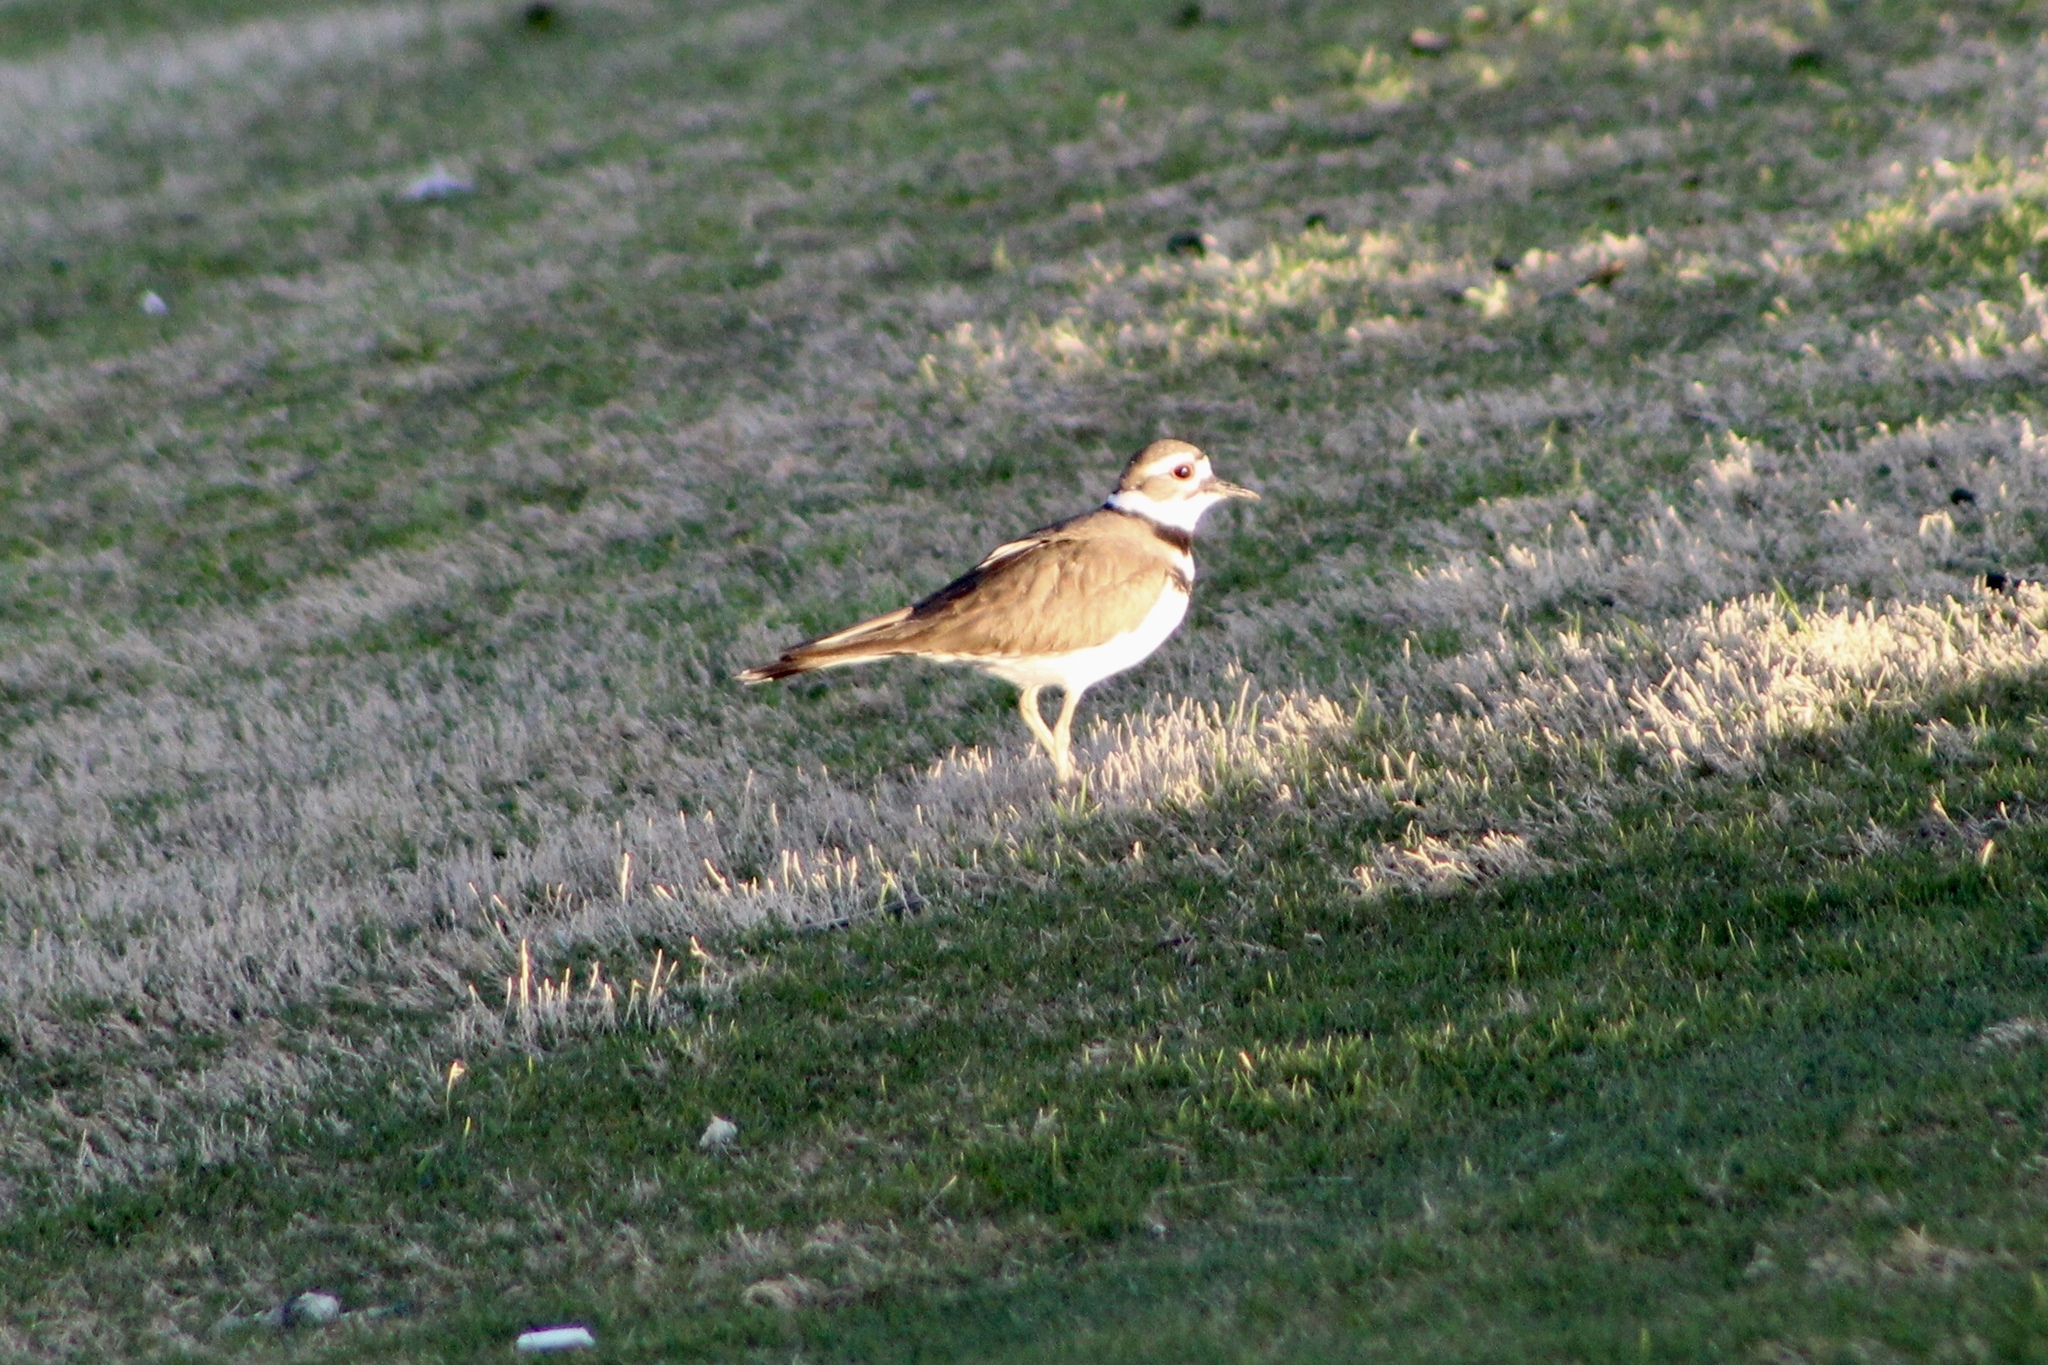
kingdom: Animalia
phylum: Chordata
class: Aves
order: Charadriiformes
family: Charadriidae
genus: Charadrius
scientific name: Charadrius vociferus
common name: Killdeer
